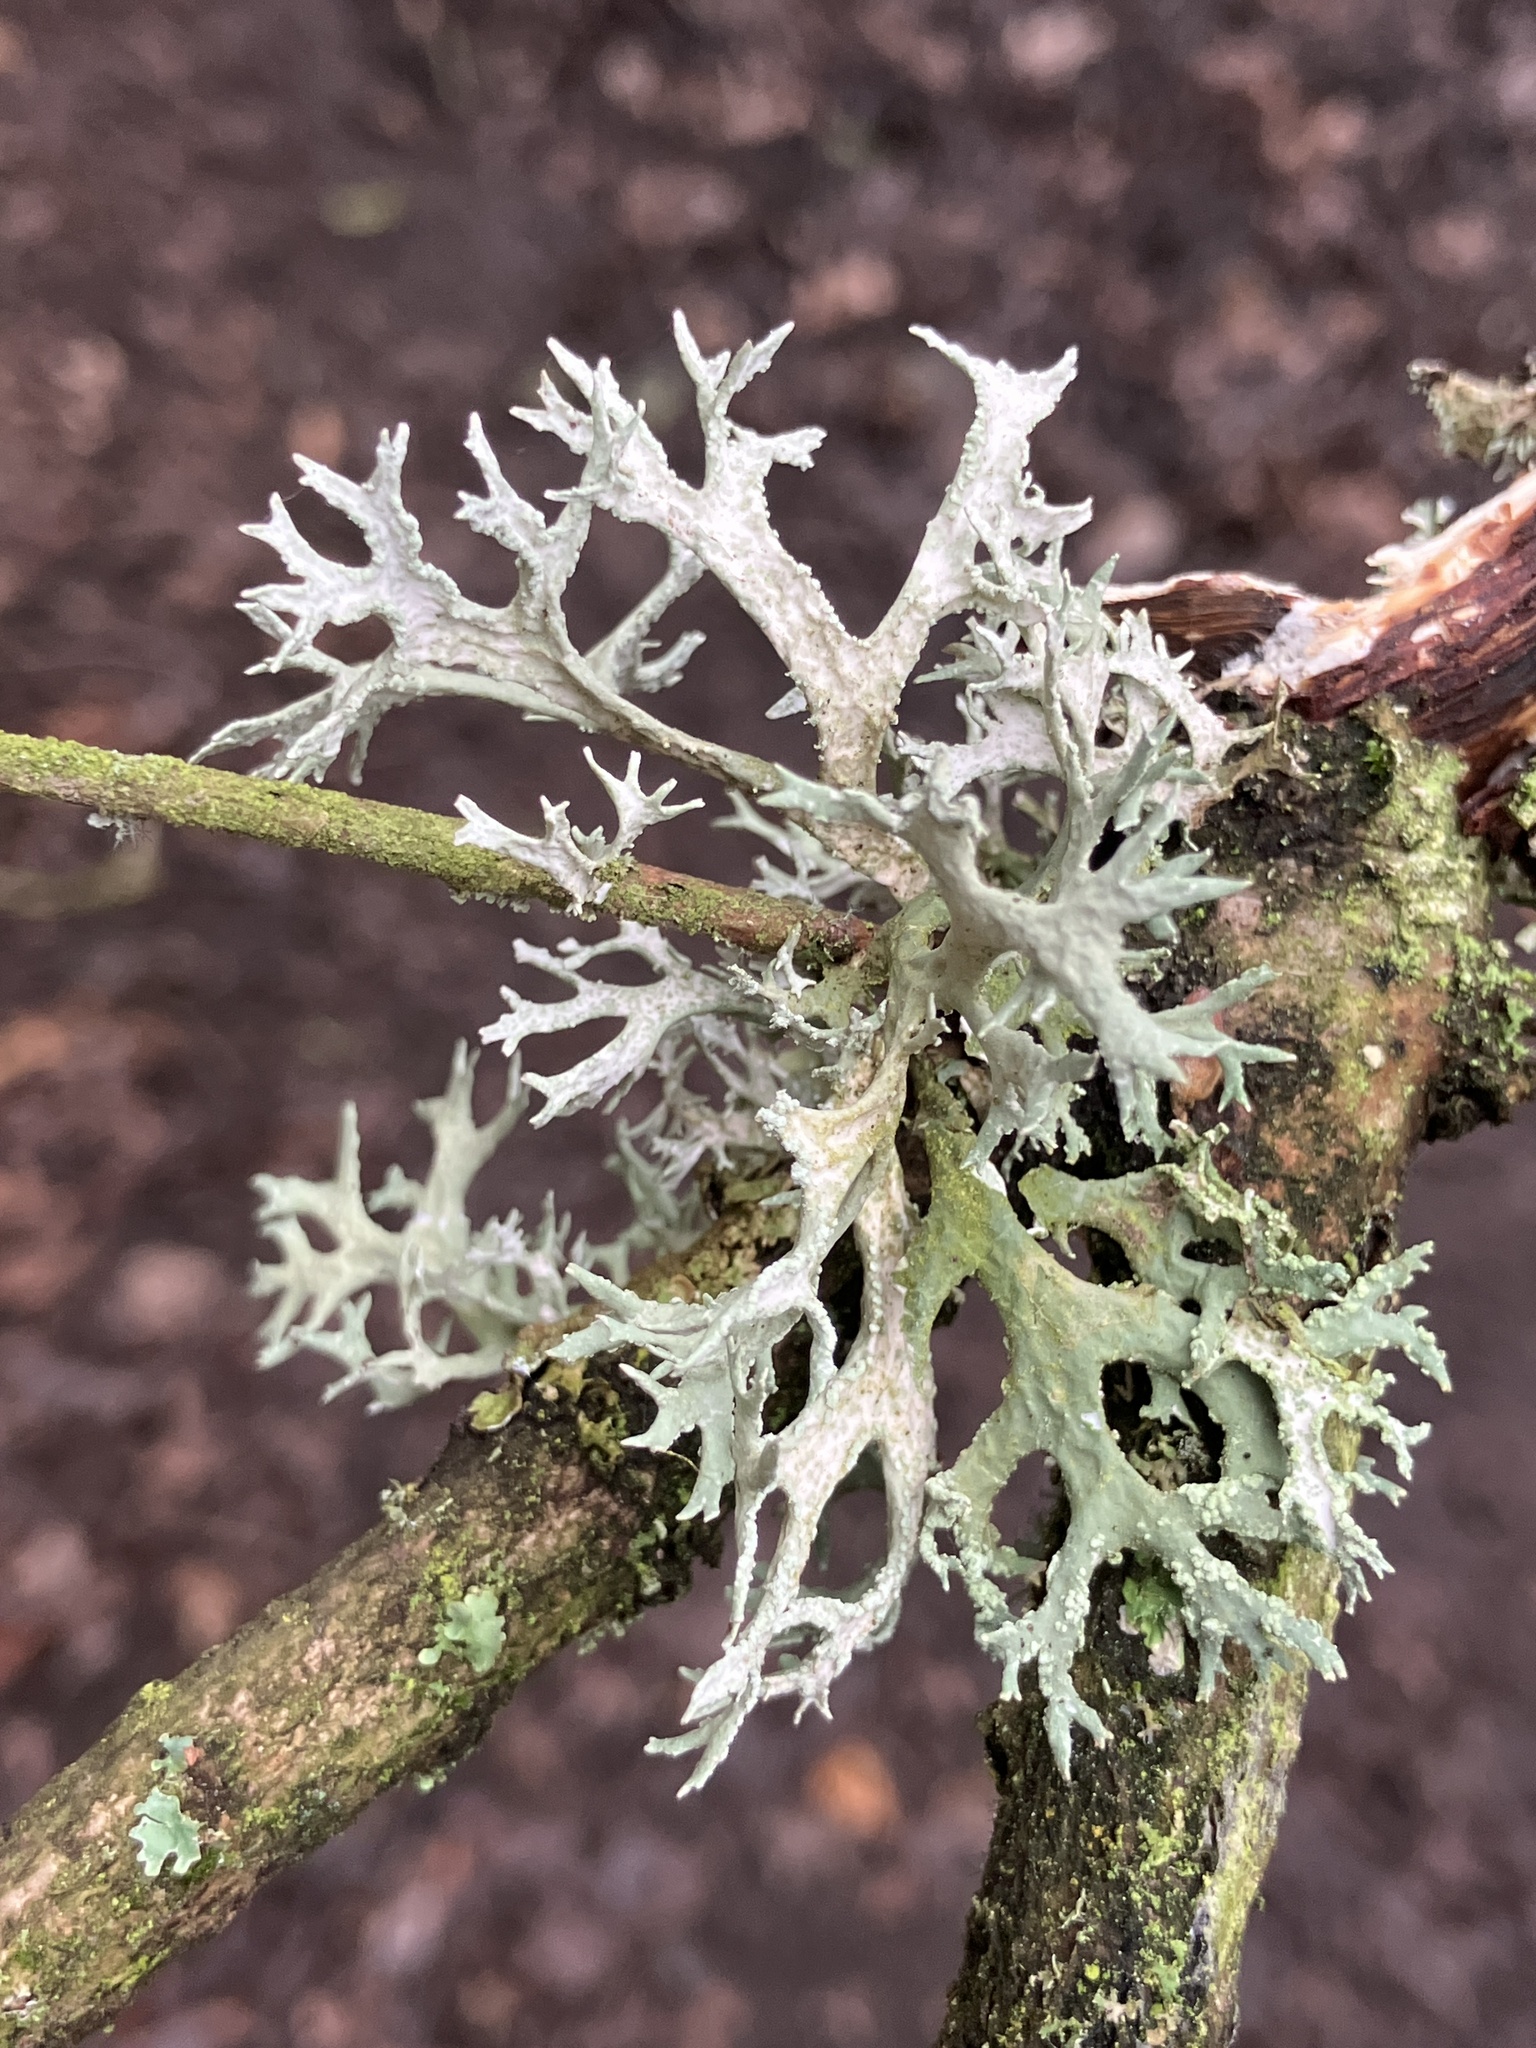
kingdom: Fungi
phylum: Ascomycota
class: Lecanoromycetes
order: Lecanorales
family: Parmeliaceae
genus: Evernia
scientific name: Evernia prunastri
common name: Oak moss
